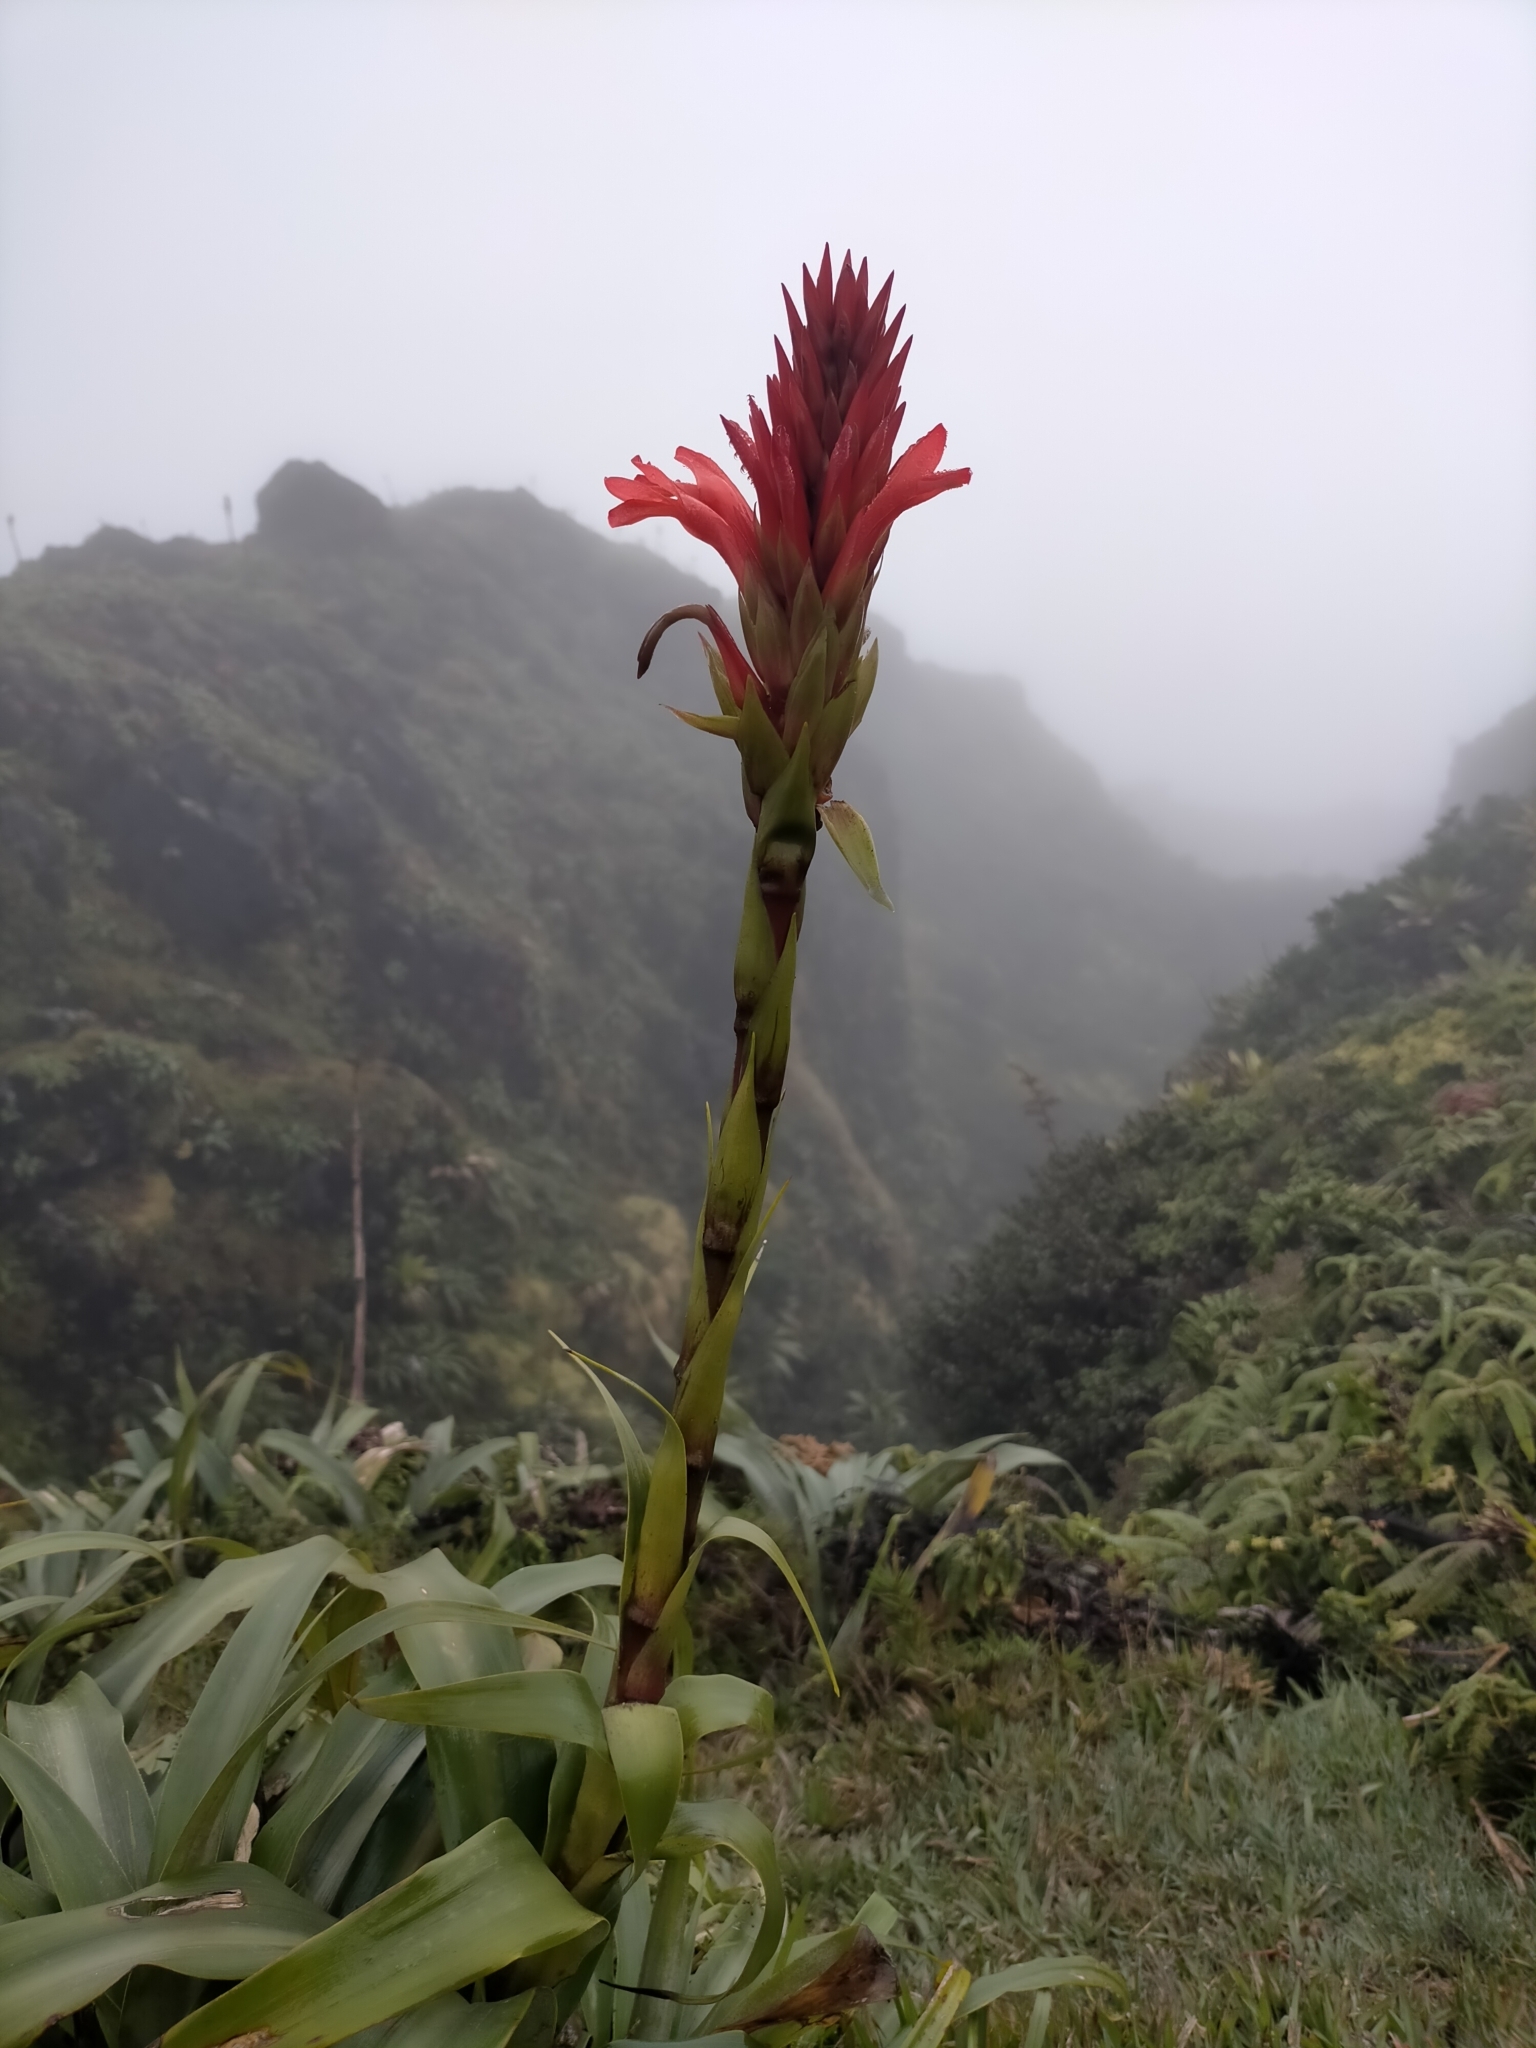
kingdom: Plantae
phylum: Tracheophyta
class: Liliopsida
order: Poales
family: Bromeliaceae
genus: Pitcairnia
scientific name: Pitcairnia bifrons
